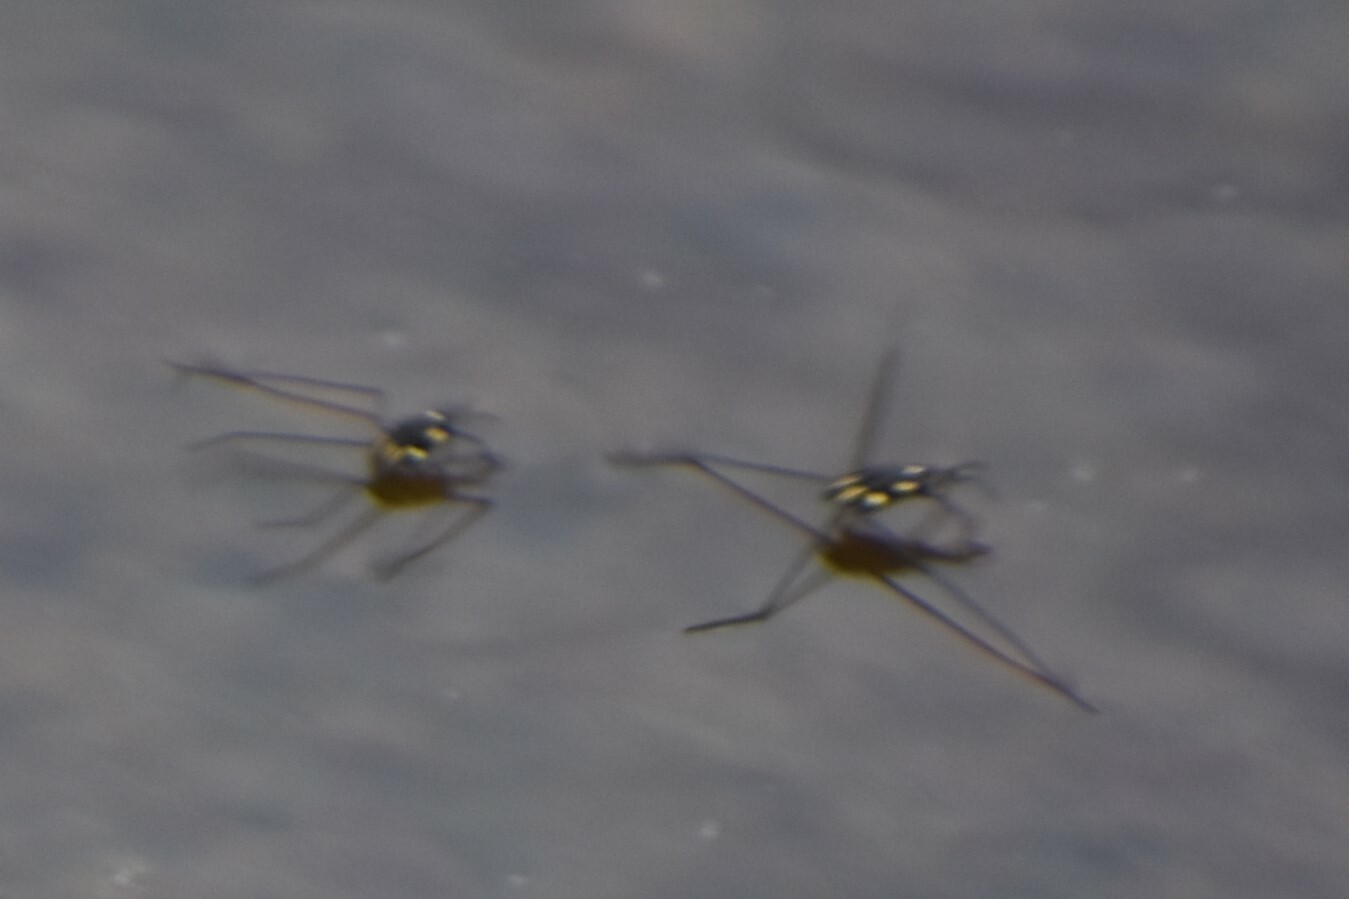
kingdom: Animalia
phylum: Arthropoda
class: Insecta
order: Hemiptera
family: Gerridae
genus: Metrobates
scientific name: Metrobates trux
